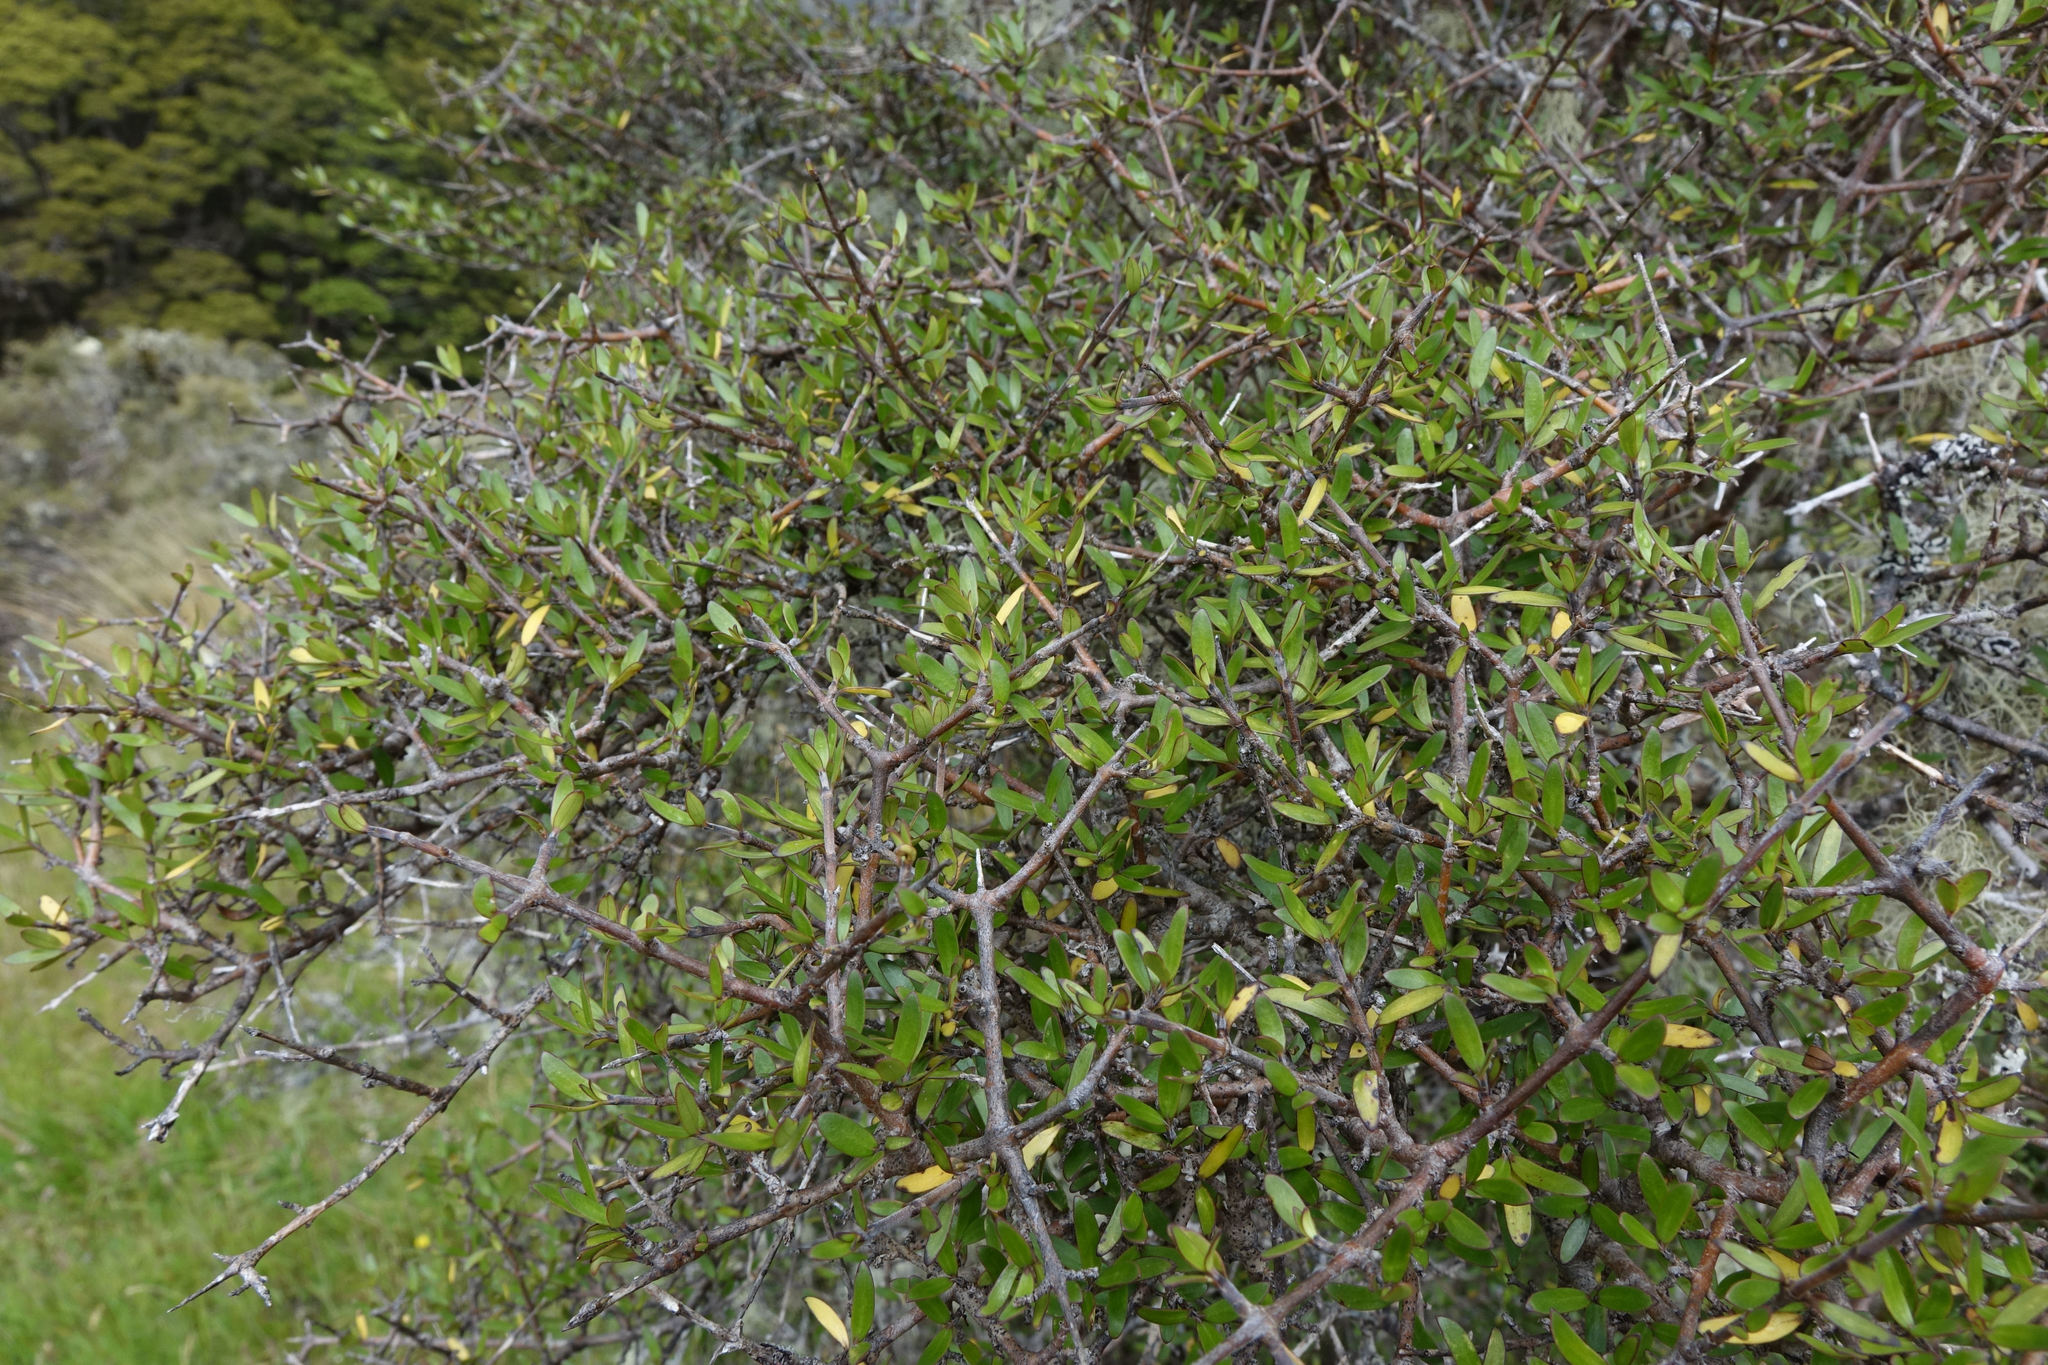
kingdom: Plantae
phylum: Tracheophyta
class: Magnoliopsida
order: Gentianales
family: Rubiaceae
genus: Coprosma
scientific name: Coprosma propinqua
